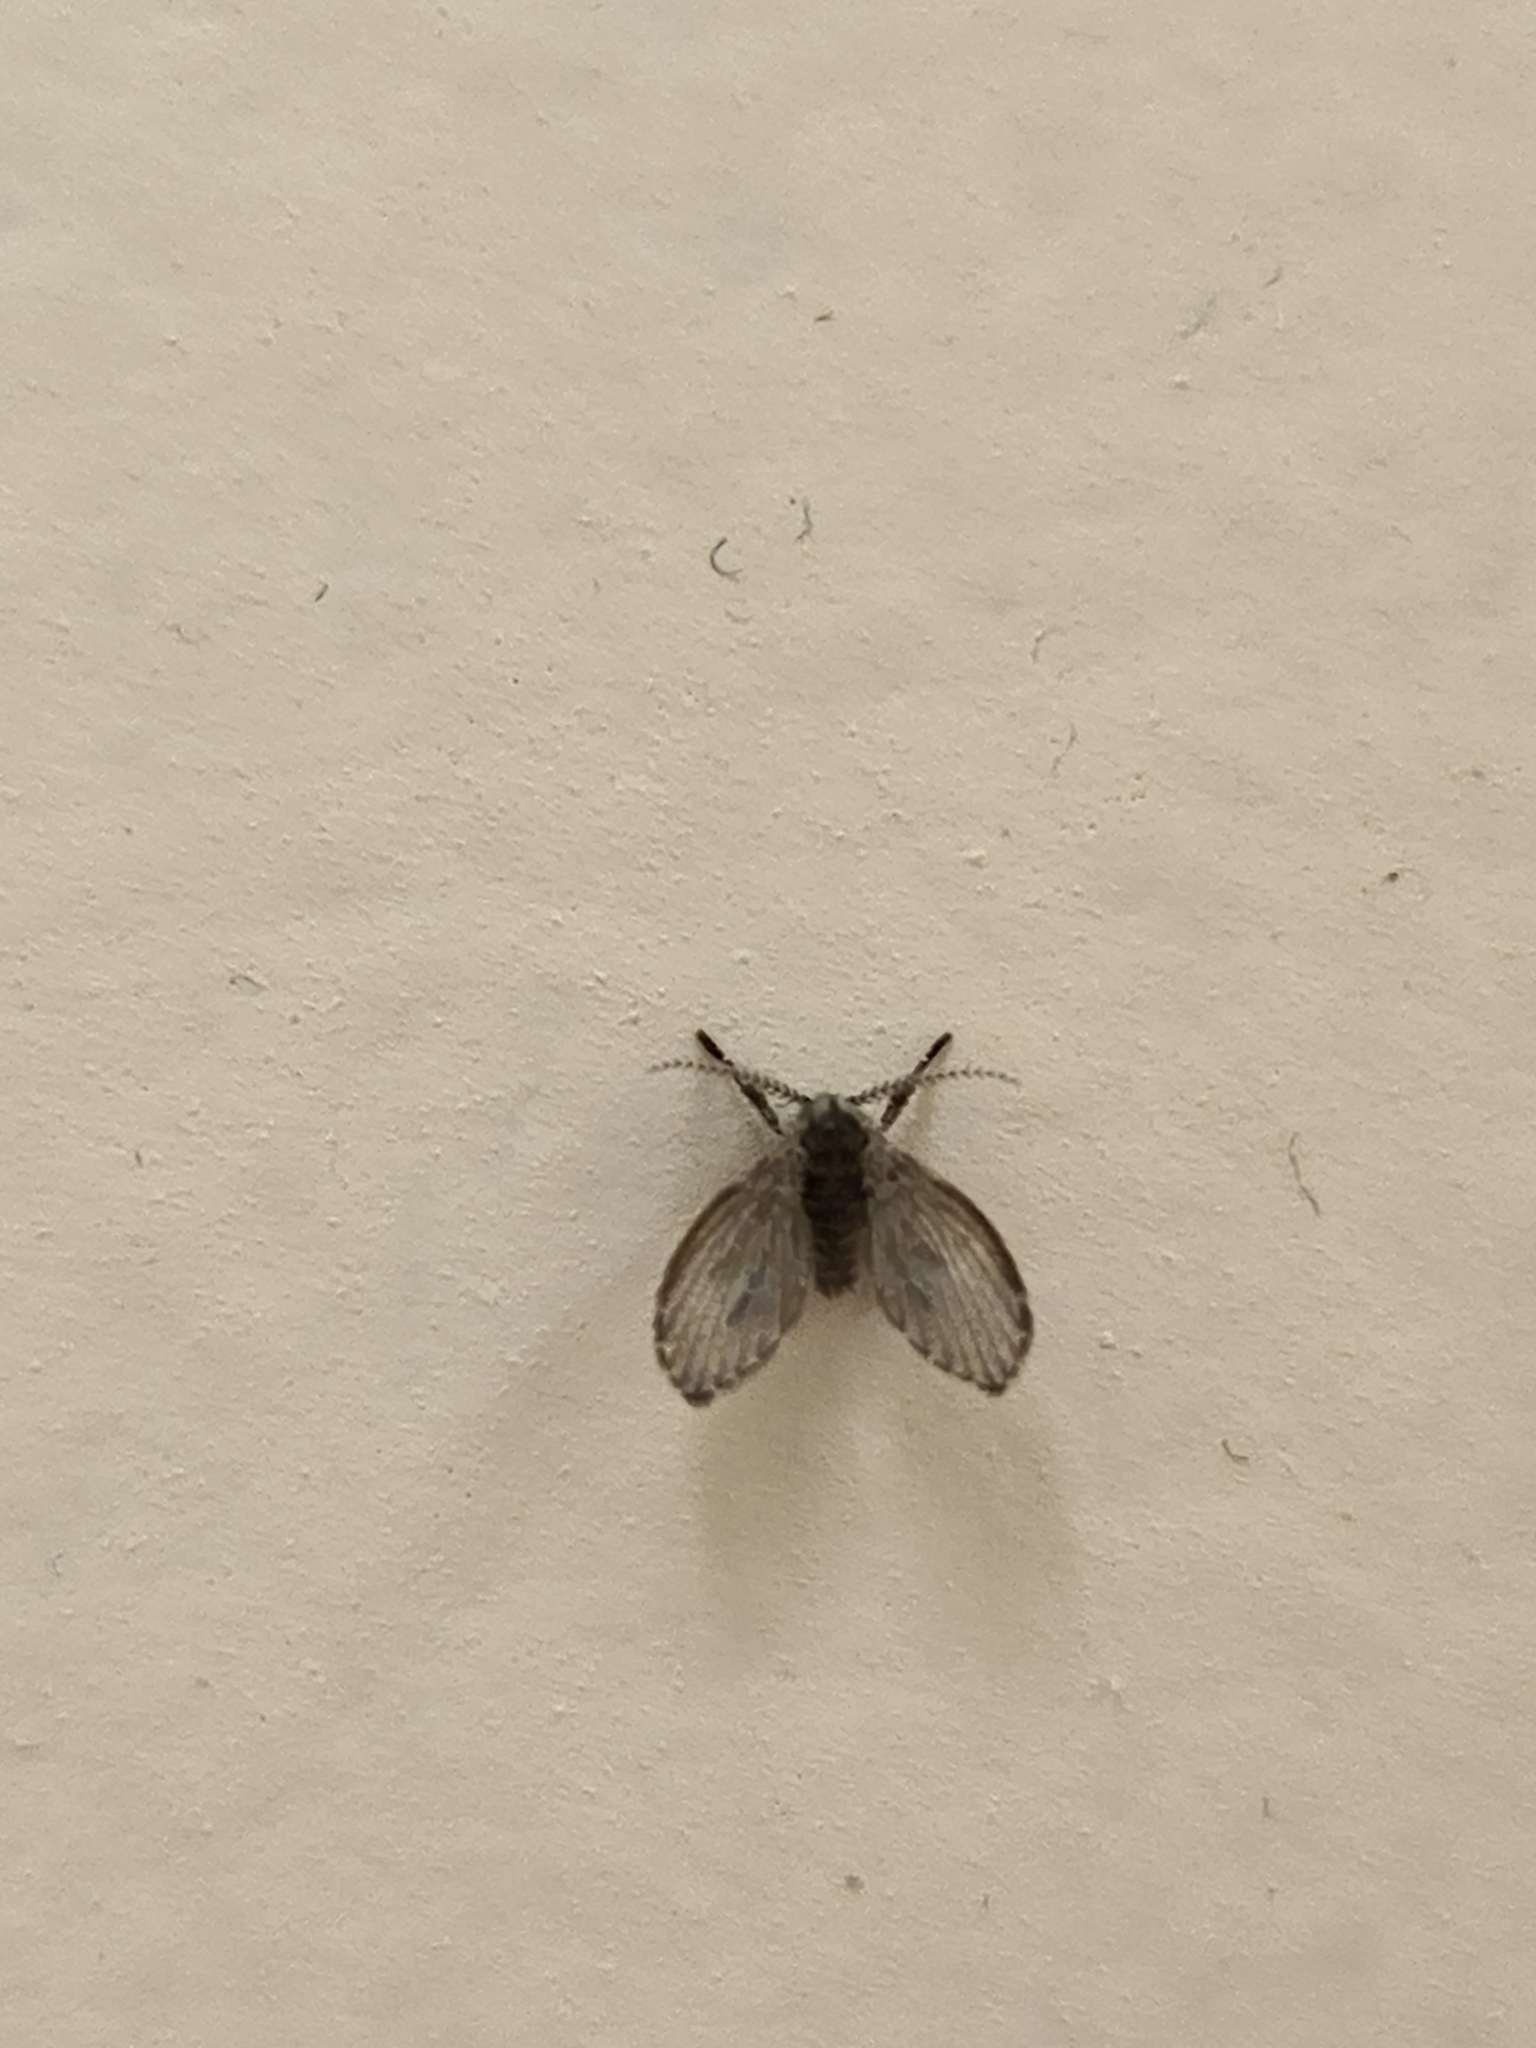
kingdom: Animalia
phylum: Arthropoda
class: Insecta
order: Diptera
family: Psychodidae
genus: Clogmia
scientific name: Clogmia albipunctatus
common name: White-spotted moth fly
